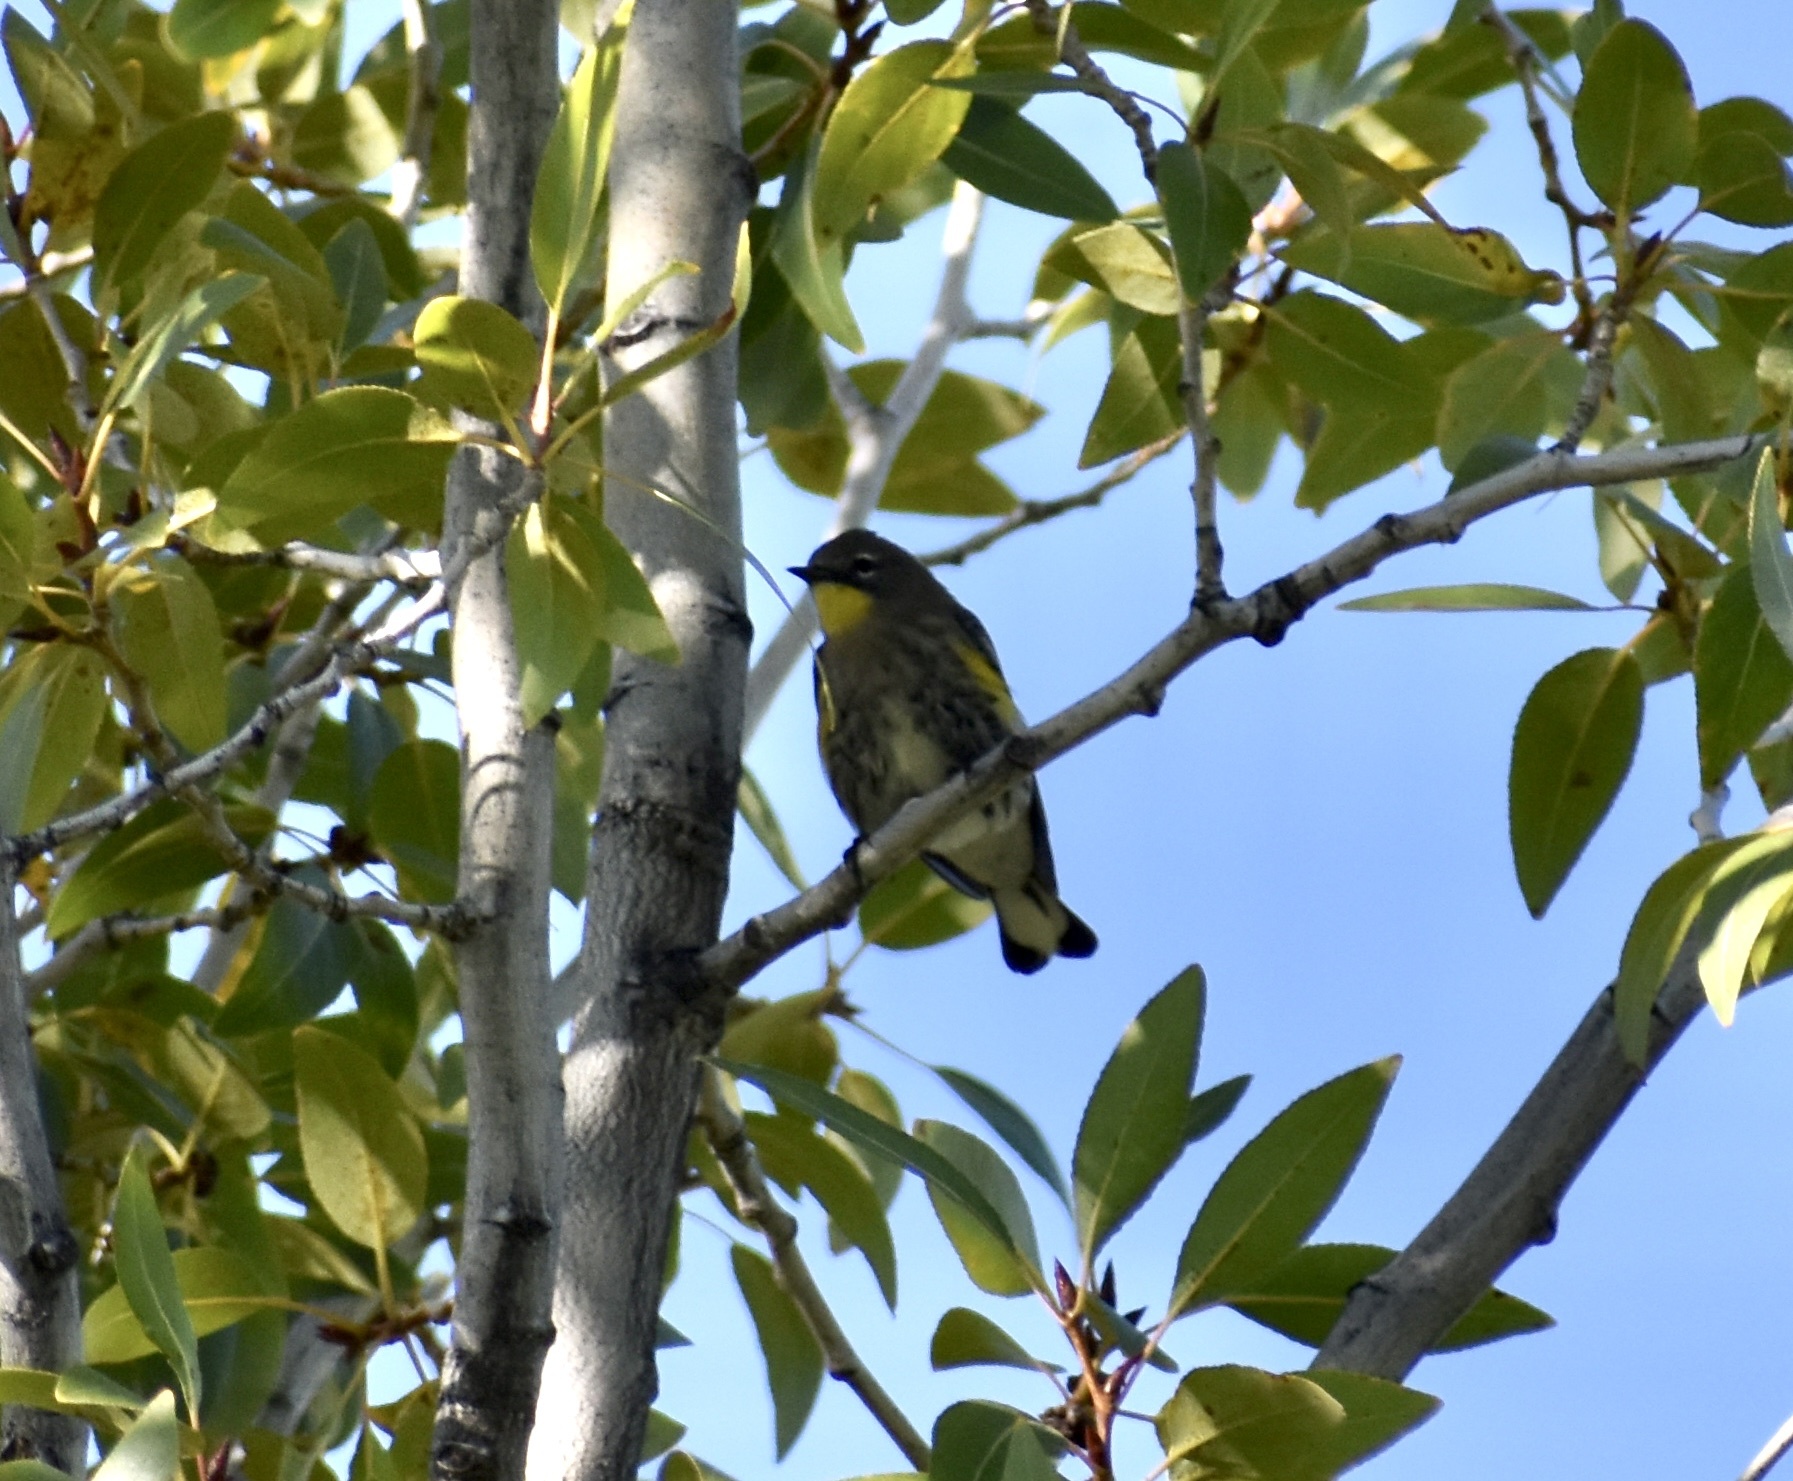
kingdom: Animalia
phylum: Chordata
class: Aves
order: Passeriformes
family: Parulidae
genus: Setophaga
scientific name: Setophaga coronata
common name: Myrtle warbler
